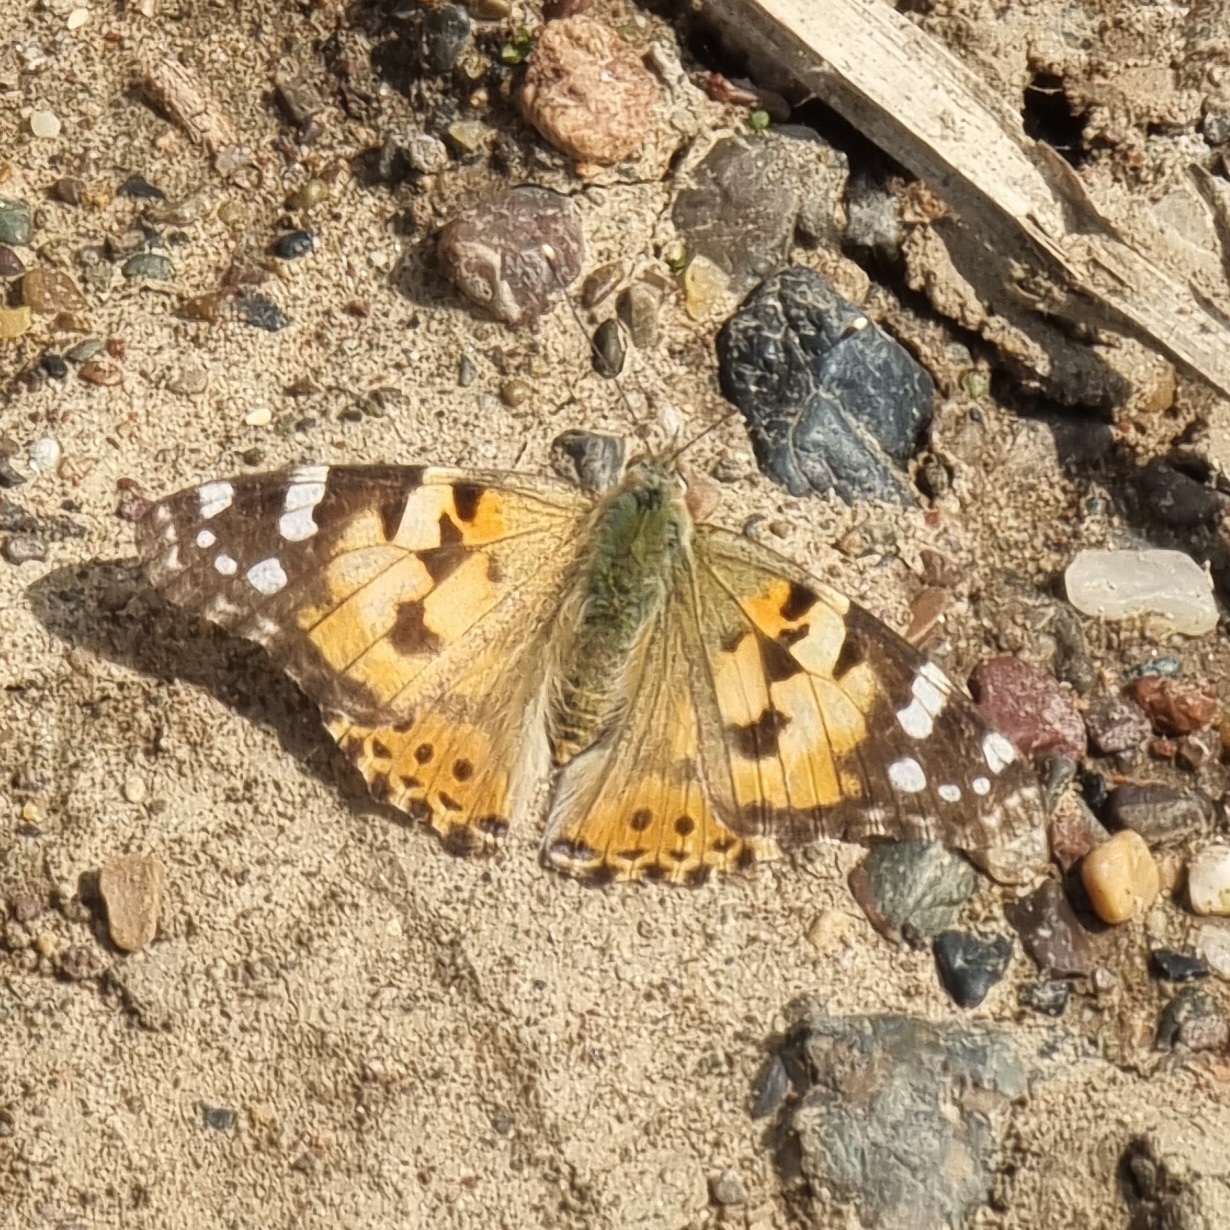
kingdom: Animalia
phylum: Arthropoda
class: Insecta
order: Lepidoptera
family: Nymphalidae
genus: Vanessa
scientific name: Vanessa cardui
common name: Painted lady
